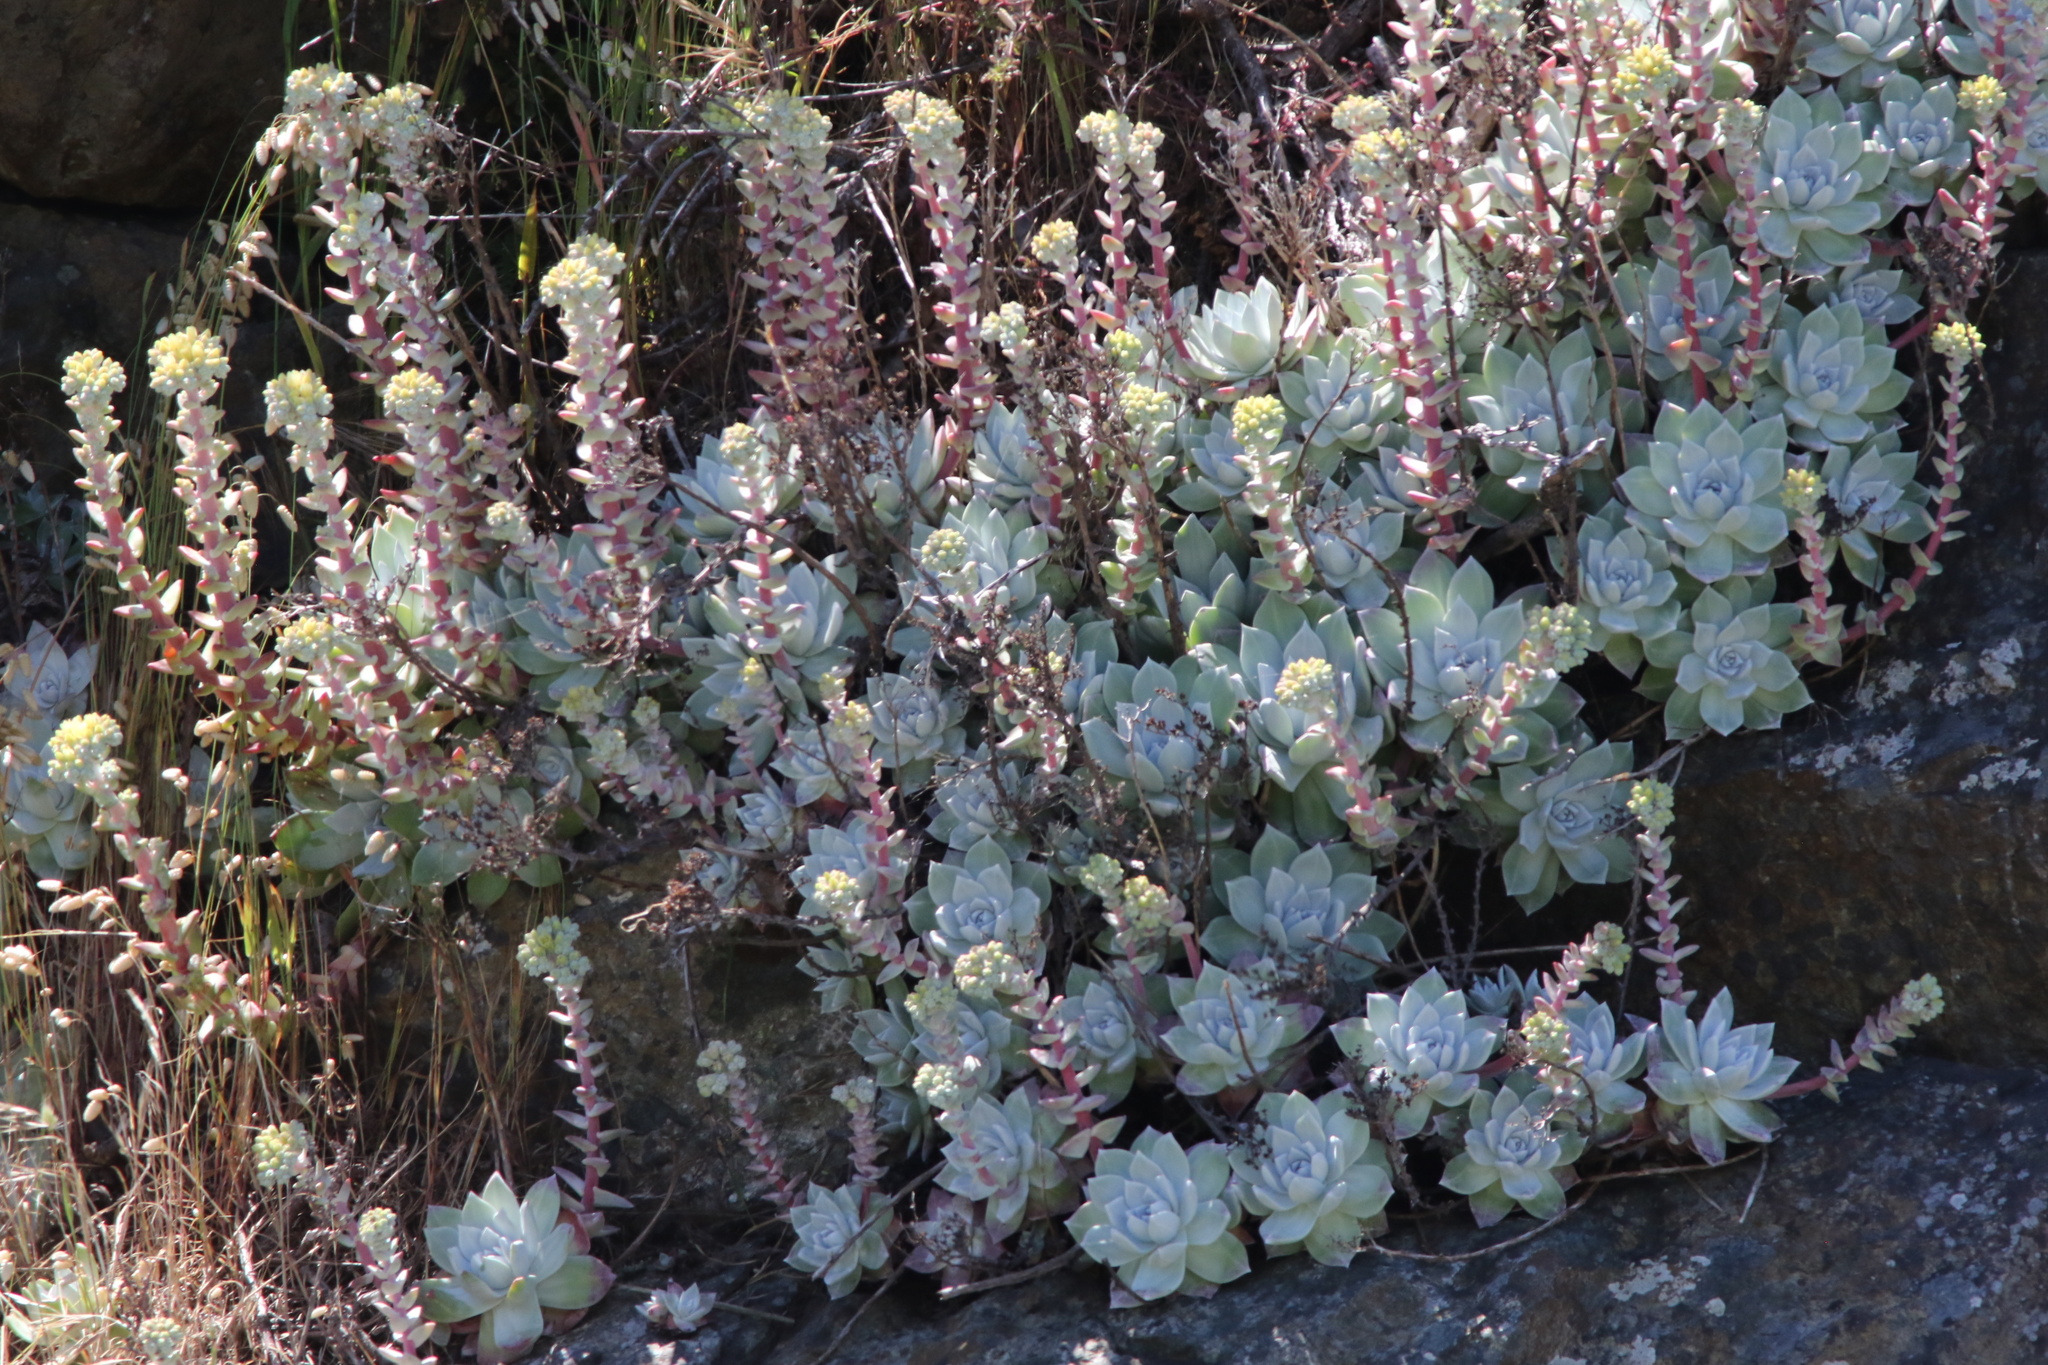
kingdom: Plantae
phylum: Tracheophyta
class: Magnoliopsida
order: Saxifragales
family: Crassulaceae
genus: Dudleya
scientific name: Dudleya farinosa
